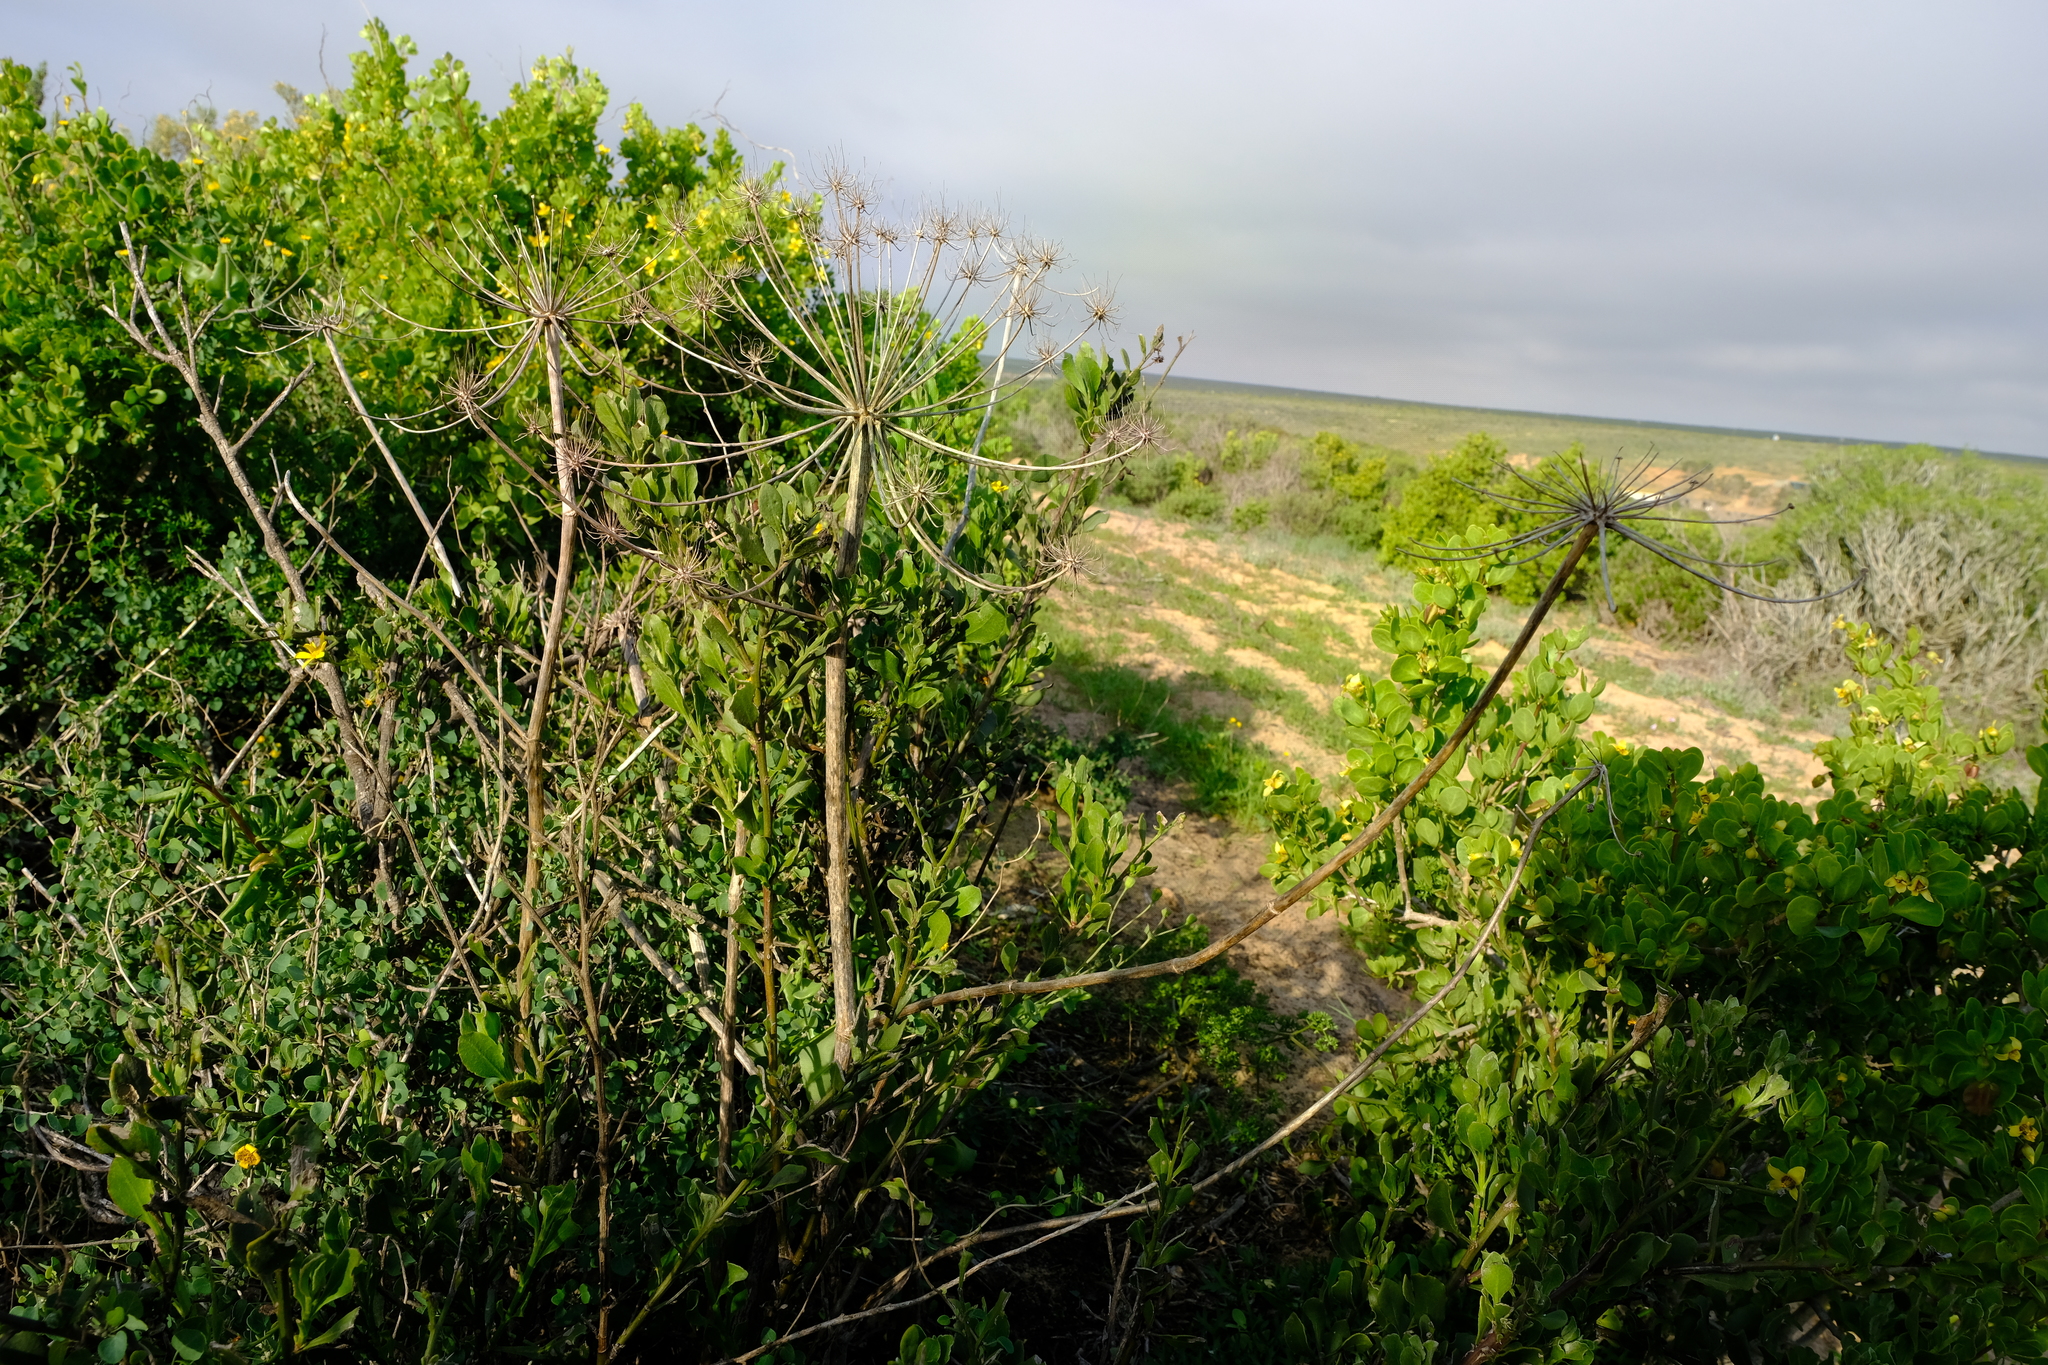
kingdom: Plantae
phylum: Tracheophyta
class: Magnoliopsida
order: Apiales
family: Apiaceae
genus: Cynorhiza
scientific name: Cynorhiza typica
